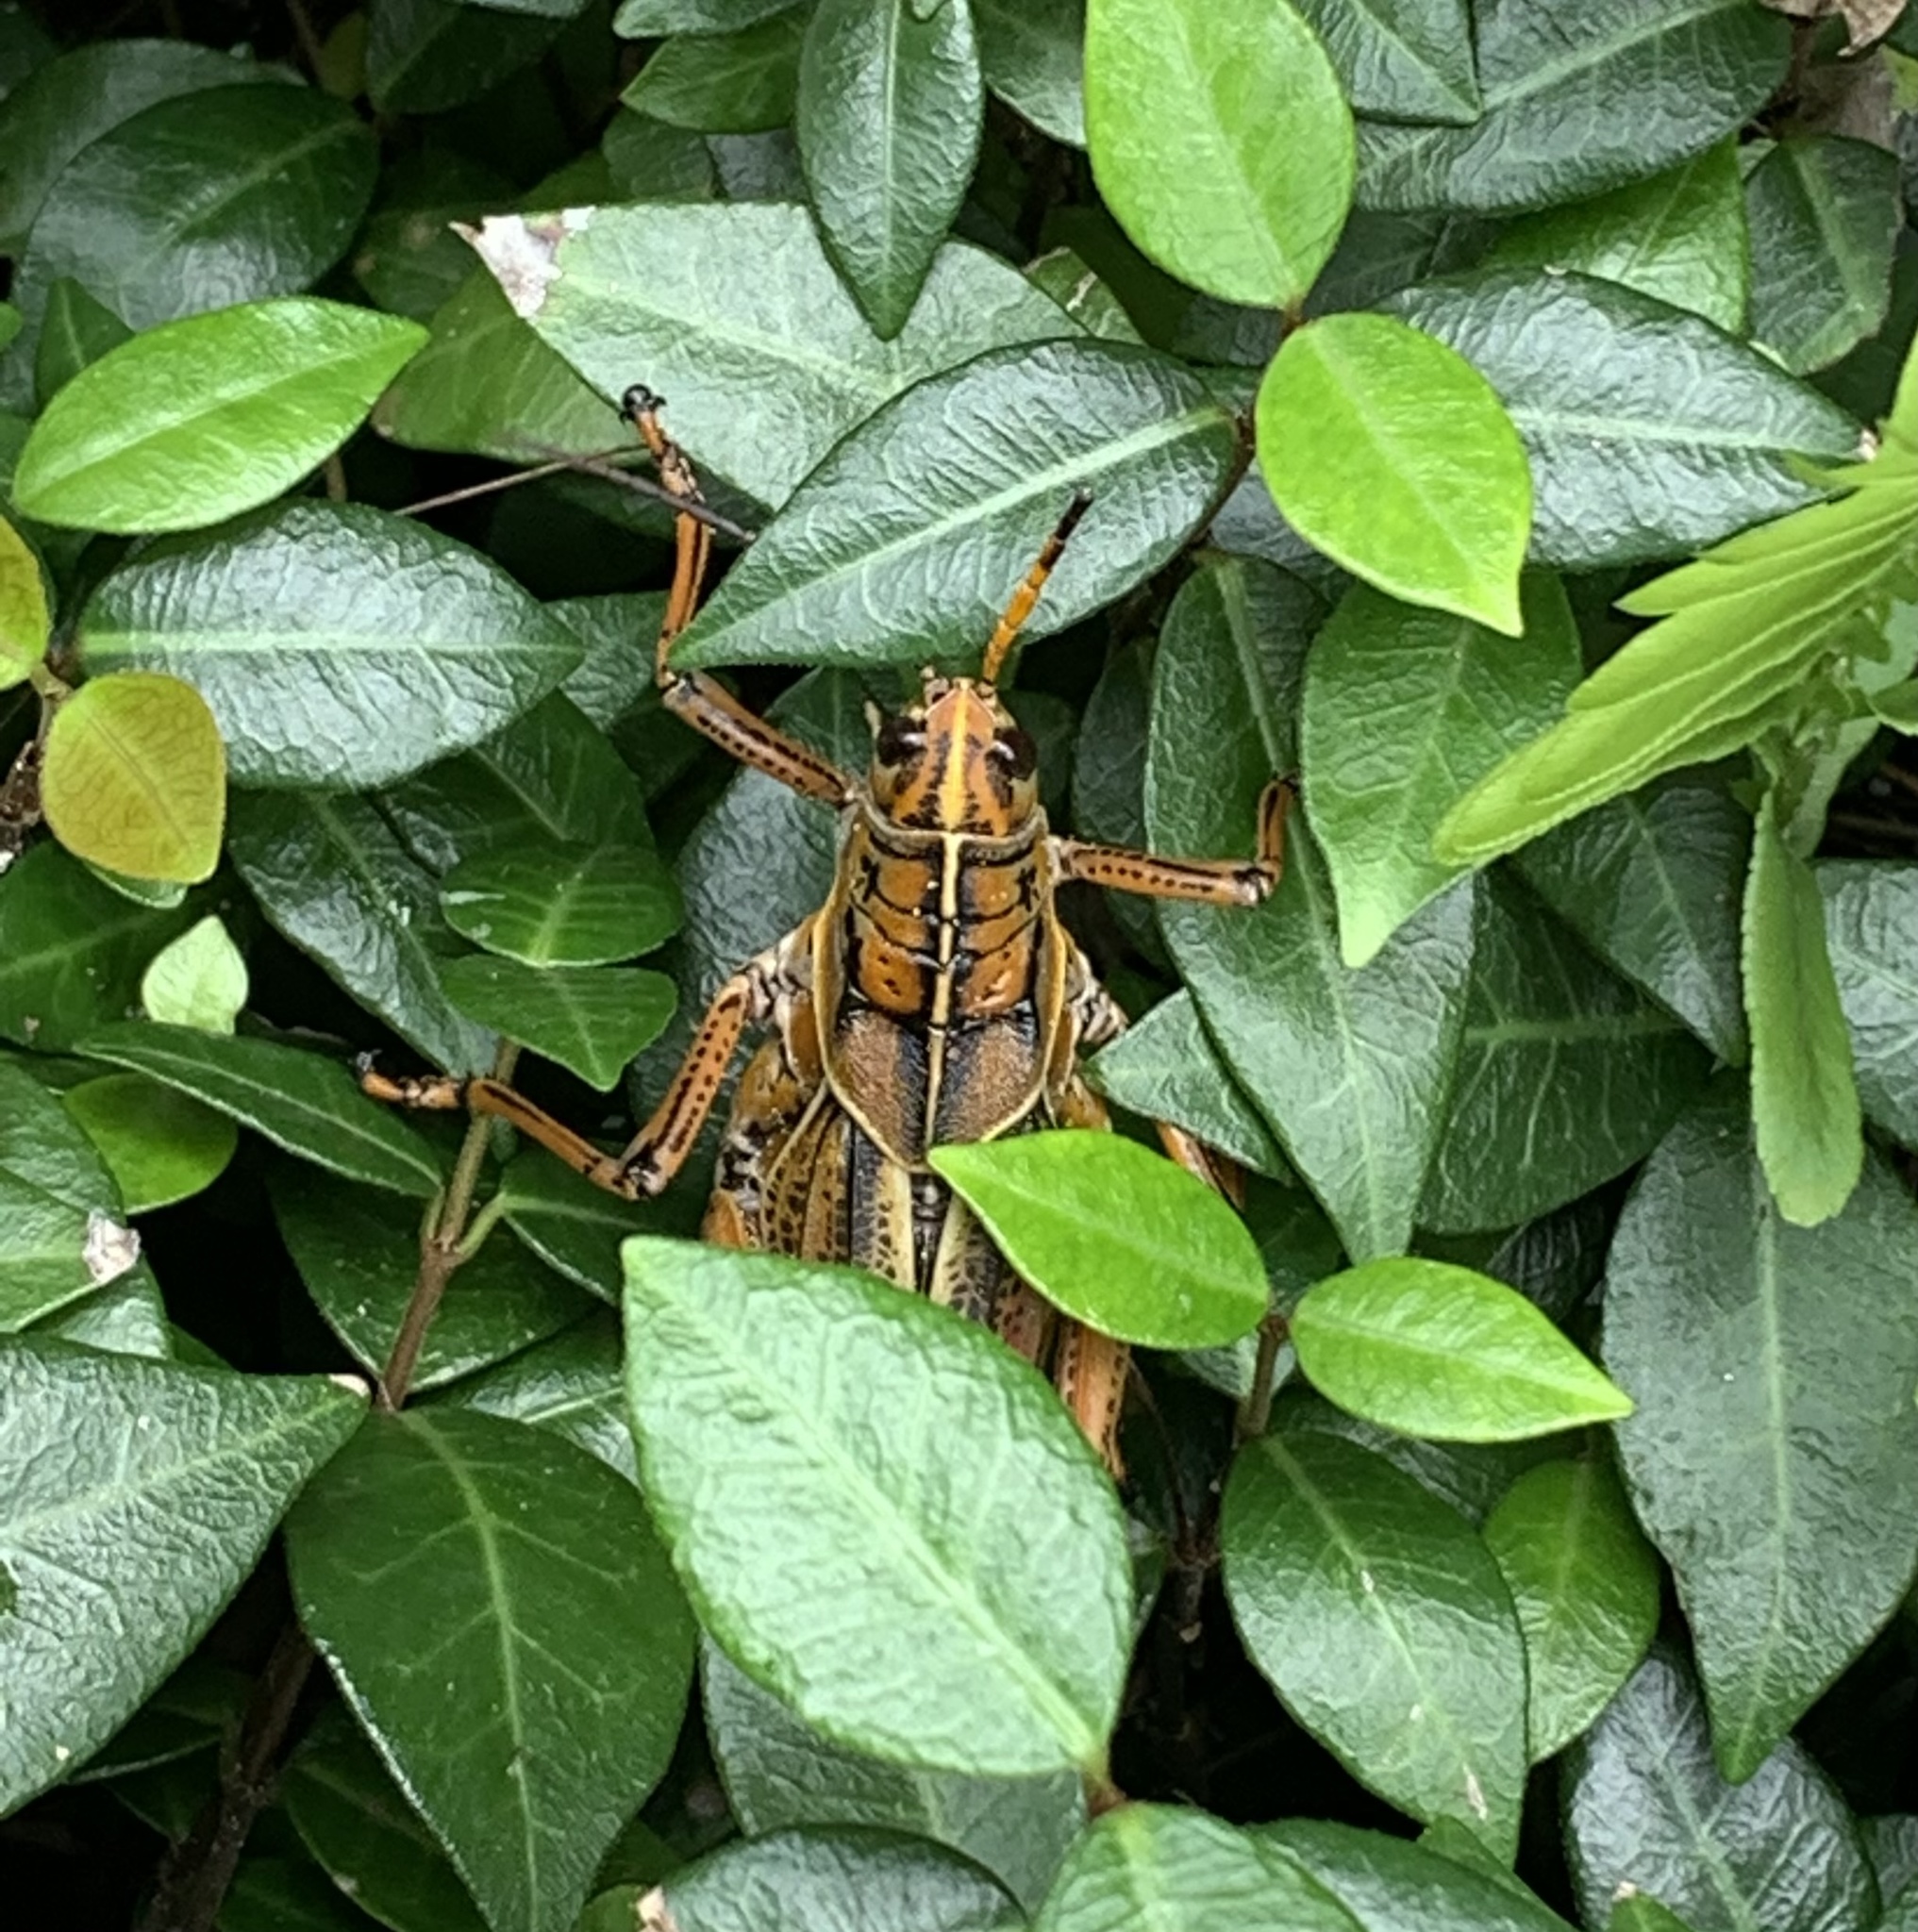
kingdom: Animalia
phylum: Arthropoda
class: Insecta
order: Orthoptera
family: Romaleidae
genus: Romalea
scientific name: Romalea microptera
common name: Eastern lubber grasshopper
